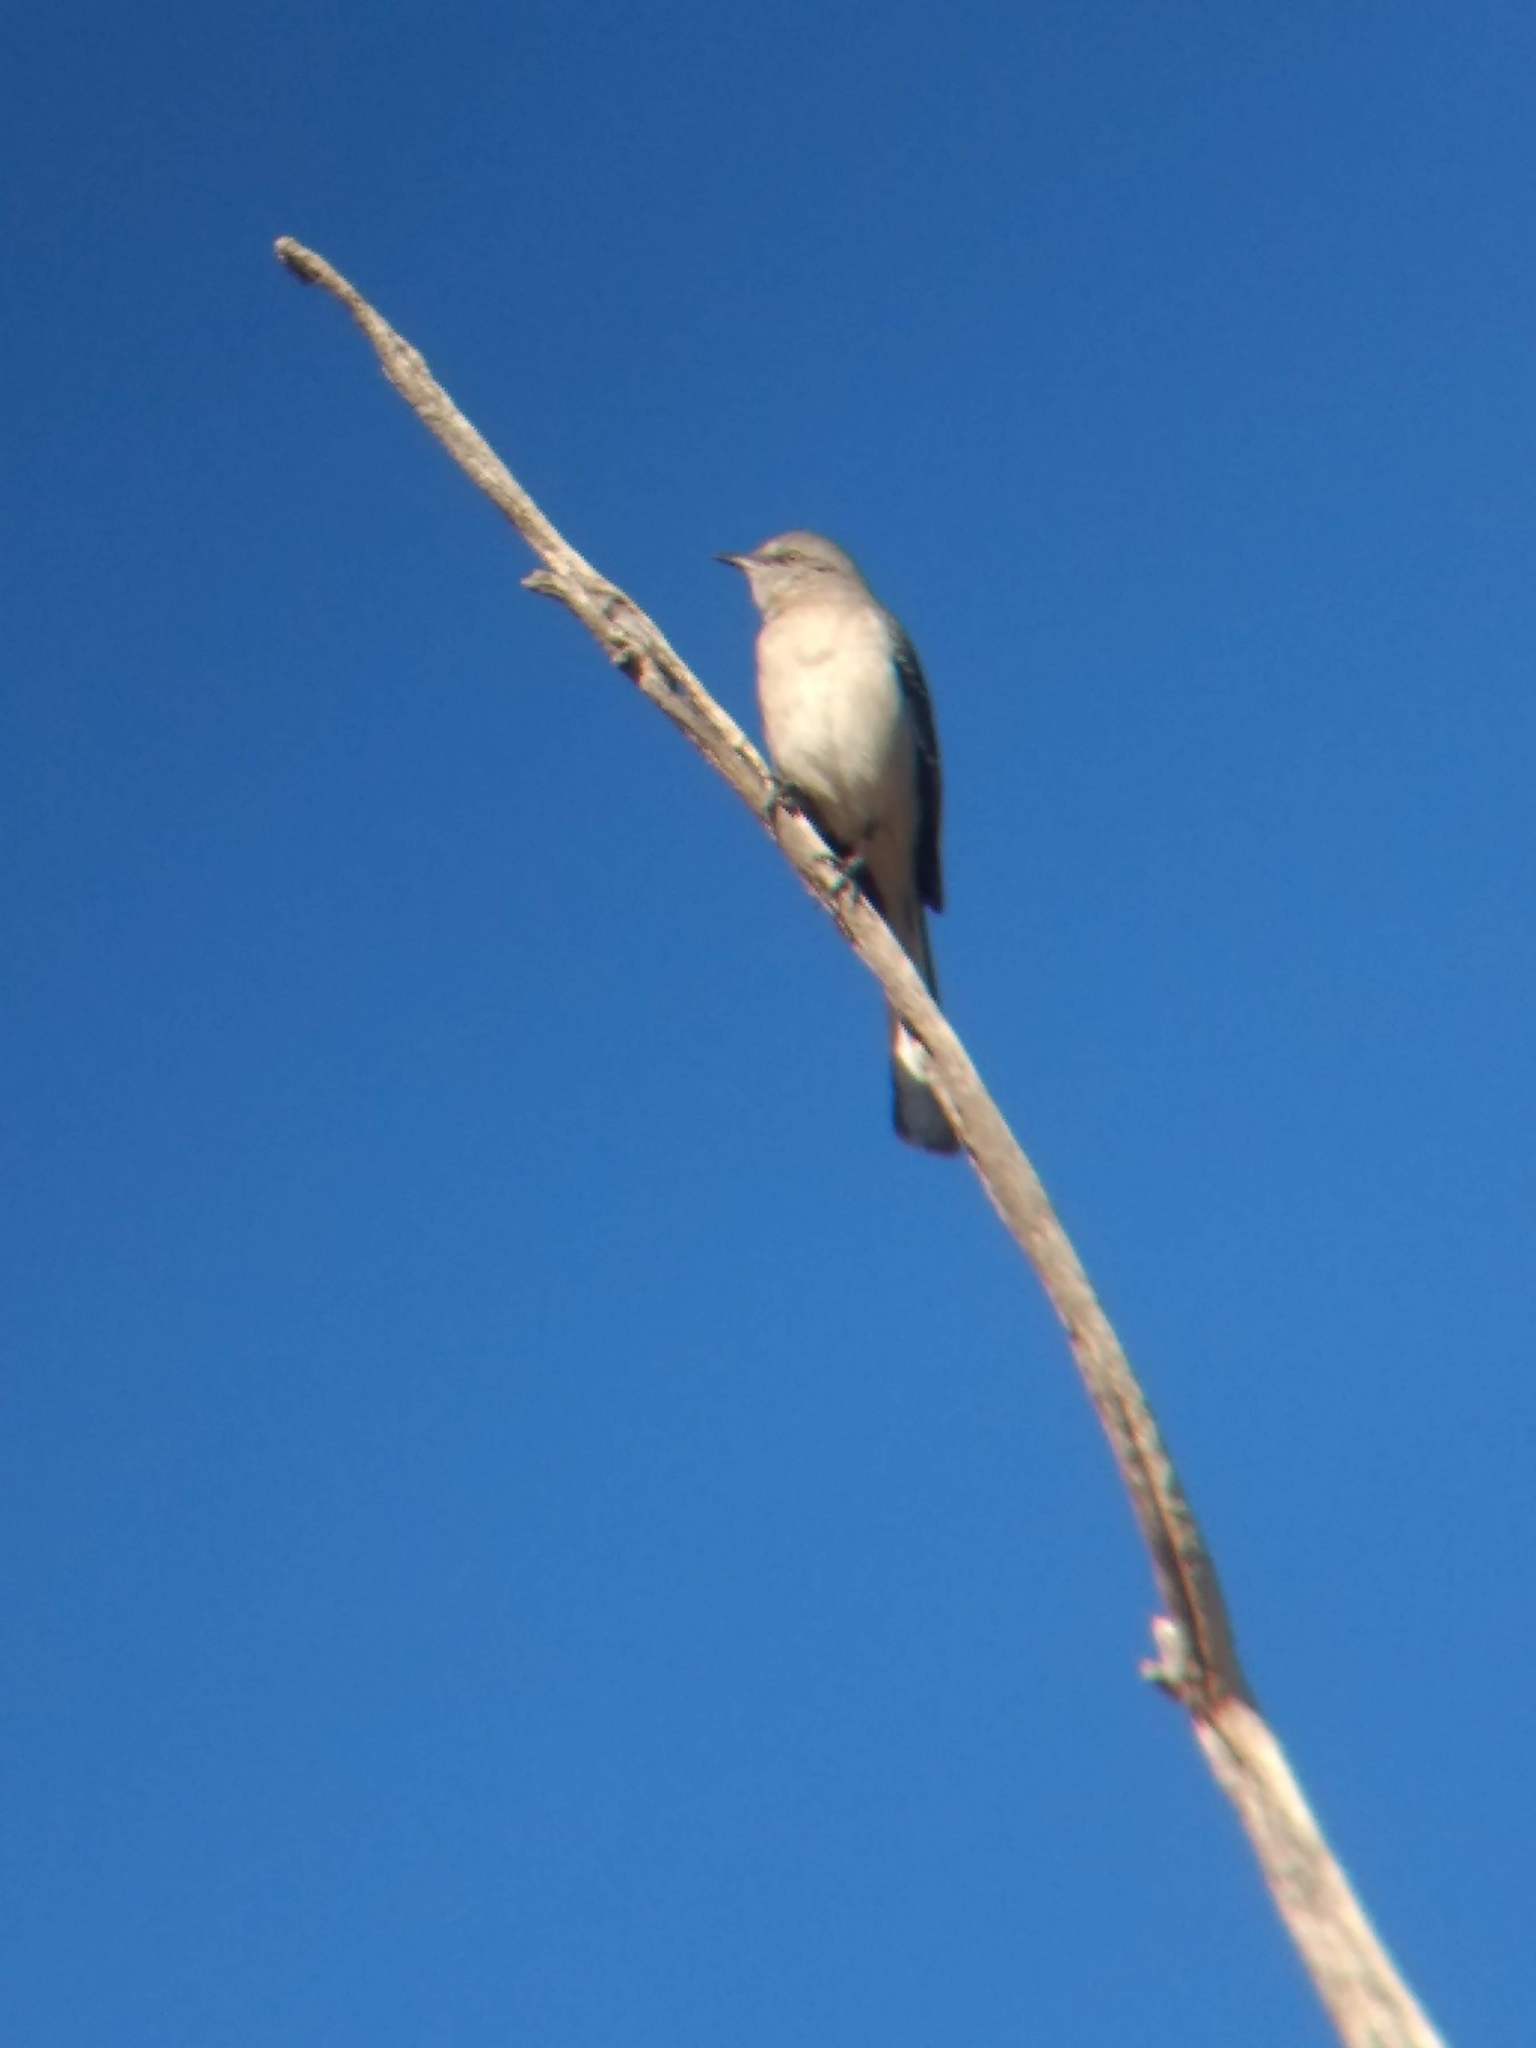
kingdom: Animalia
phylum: Chordata
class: Aves
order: Passeriformes
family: Mimidae
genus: Mimus
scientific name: Mimus polyglottos
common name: Northern mockingbird
